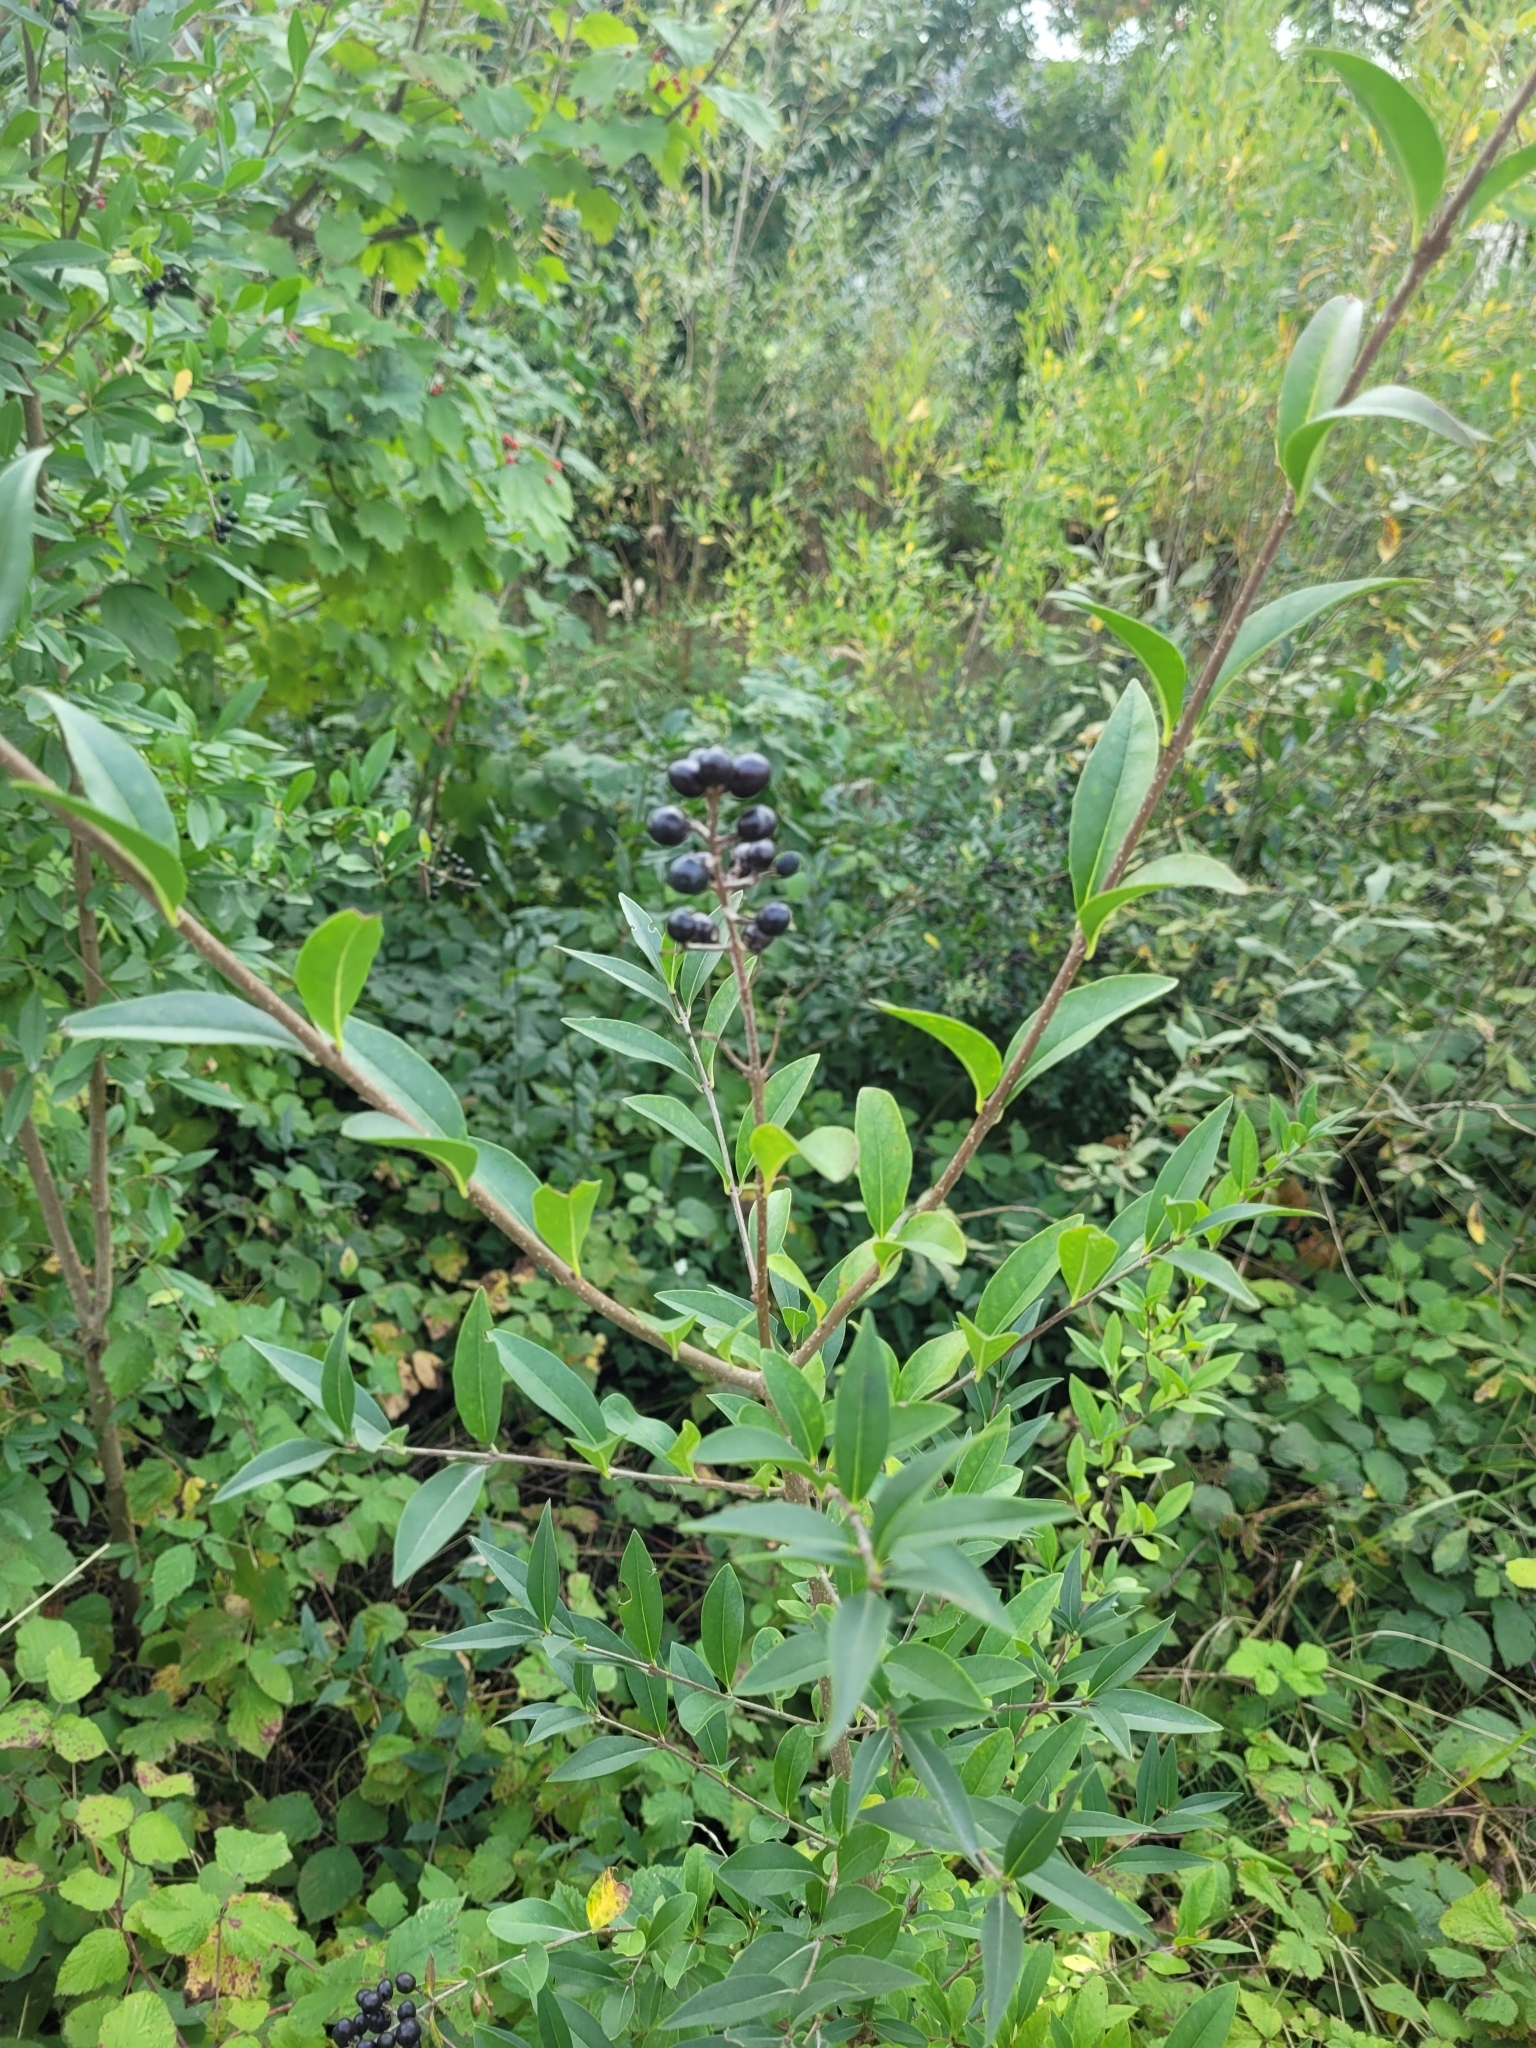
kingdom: Plantae
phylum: Tracheophyta
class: Magnoliopsida
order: Lamiales
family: Oleaceae
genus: Ligustrum
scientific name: Ligustrum vulgare
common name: Wild privet
